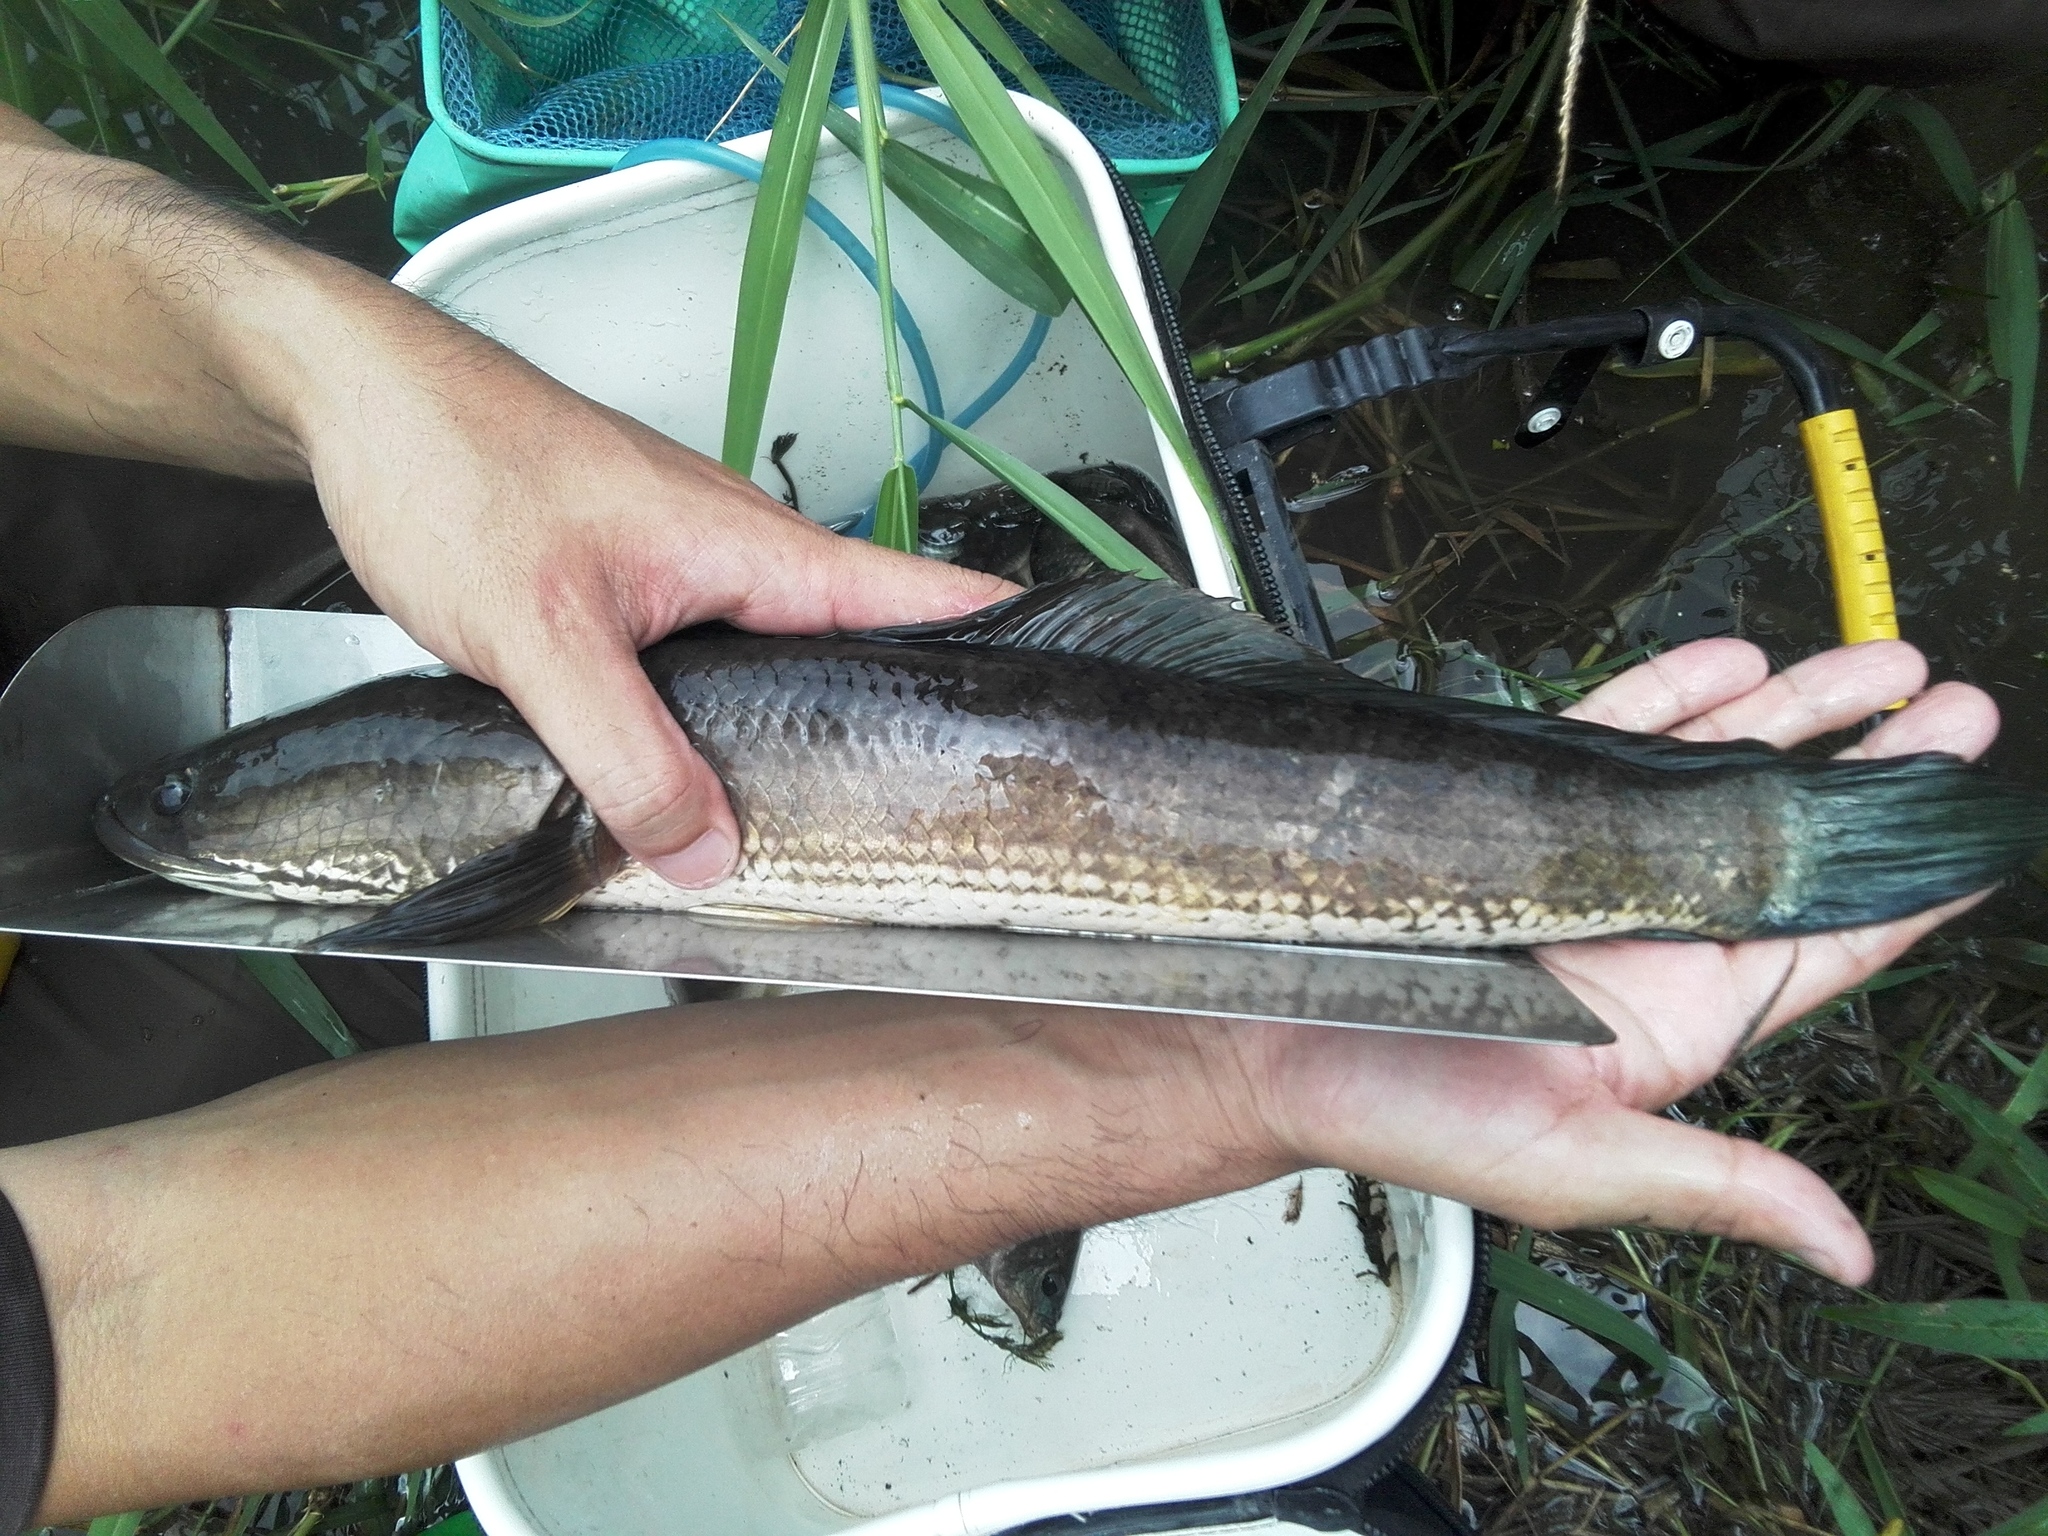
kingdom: Animalia
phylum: Chordata
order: Perciformes
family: Channidae
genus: Channa
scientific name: Channa striata
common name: Striped snakehead
